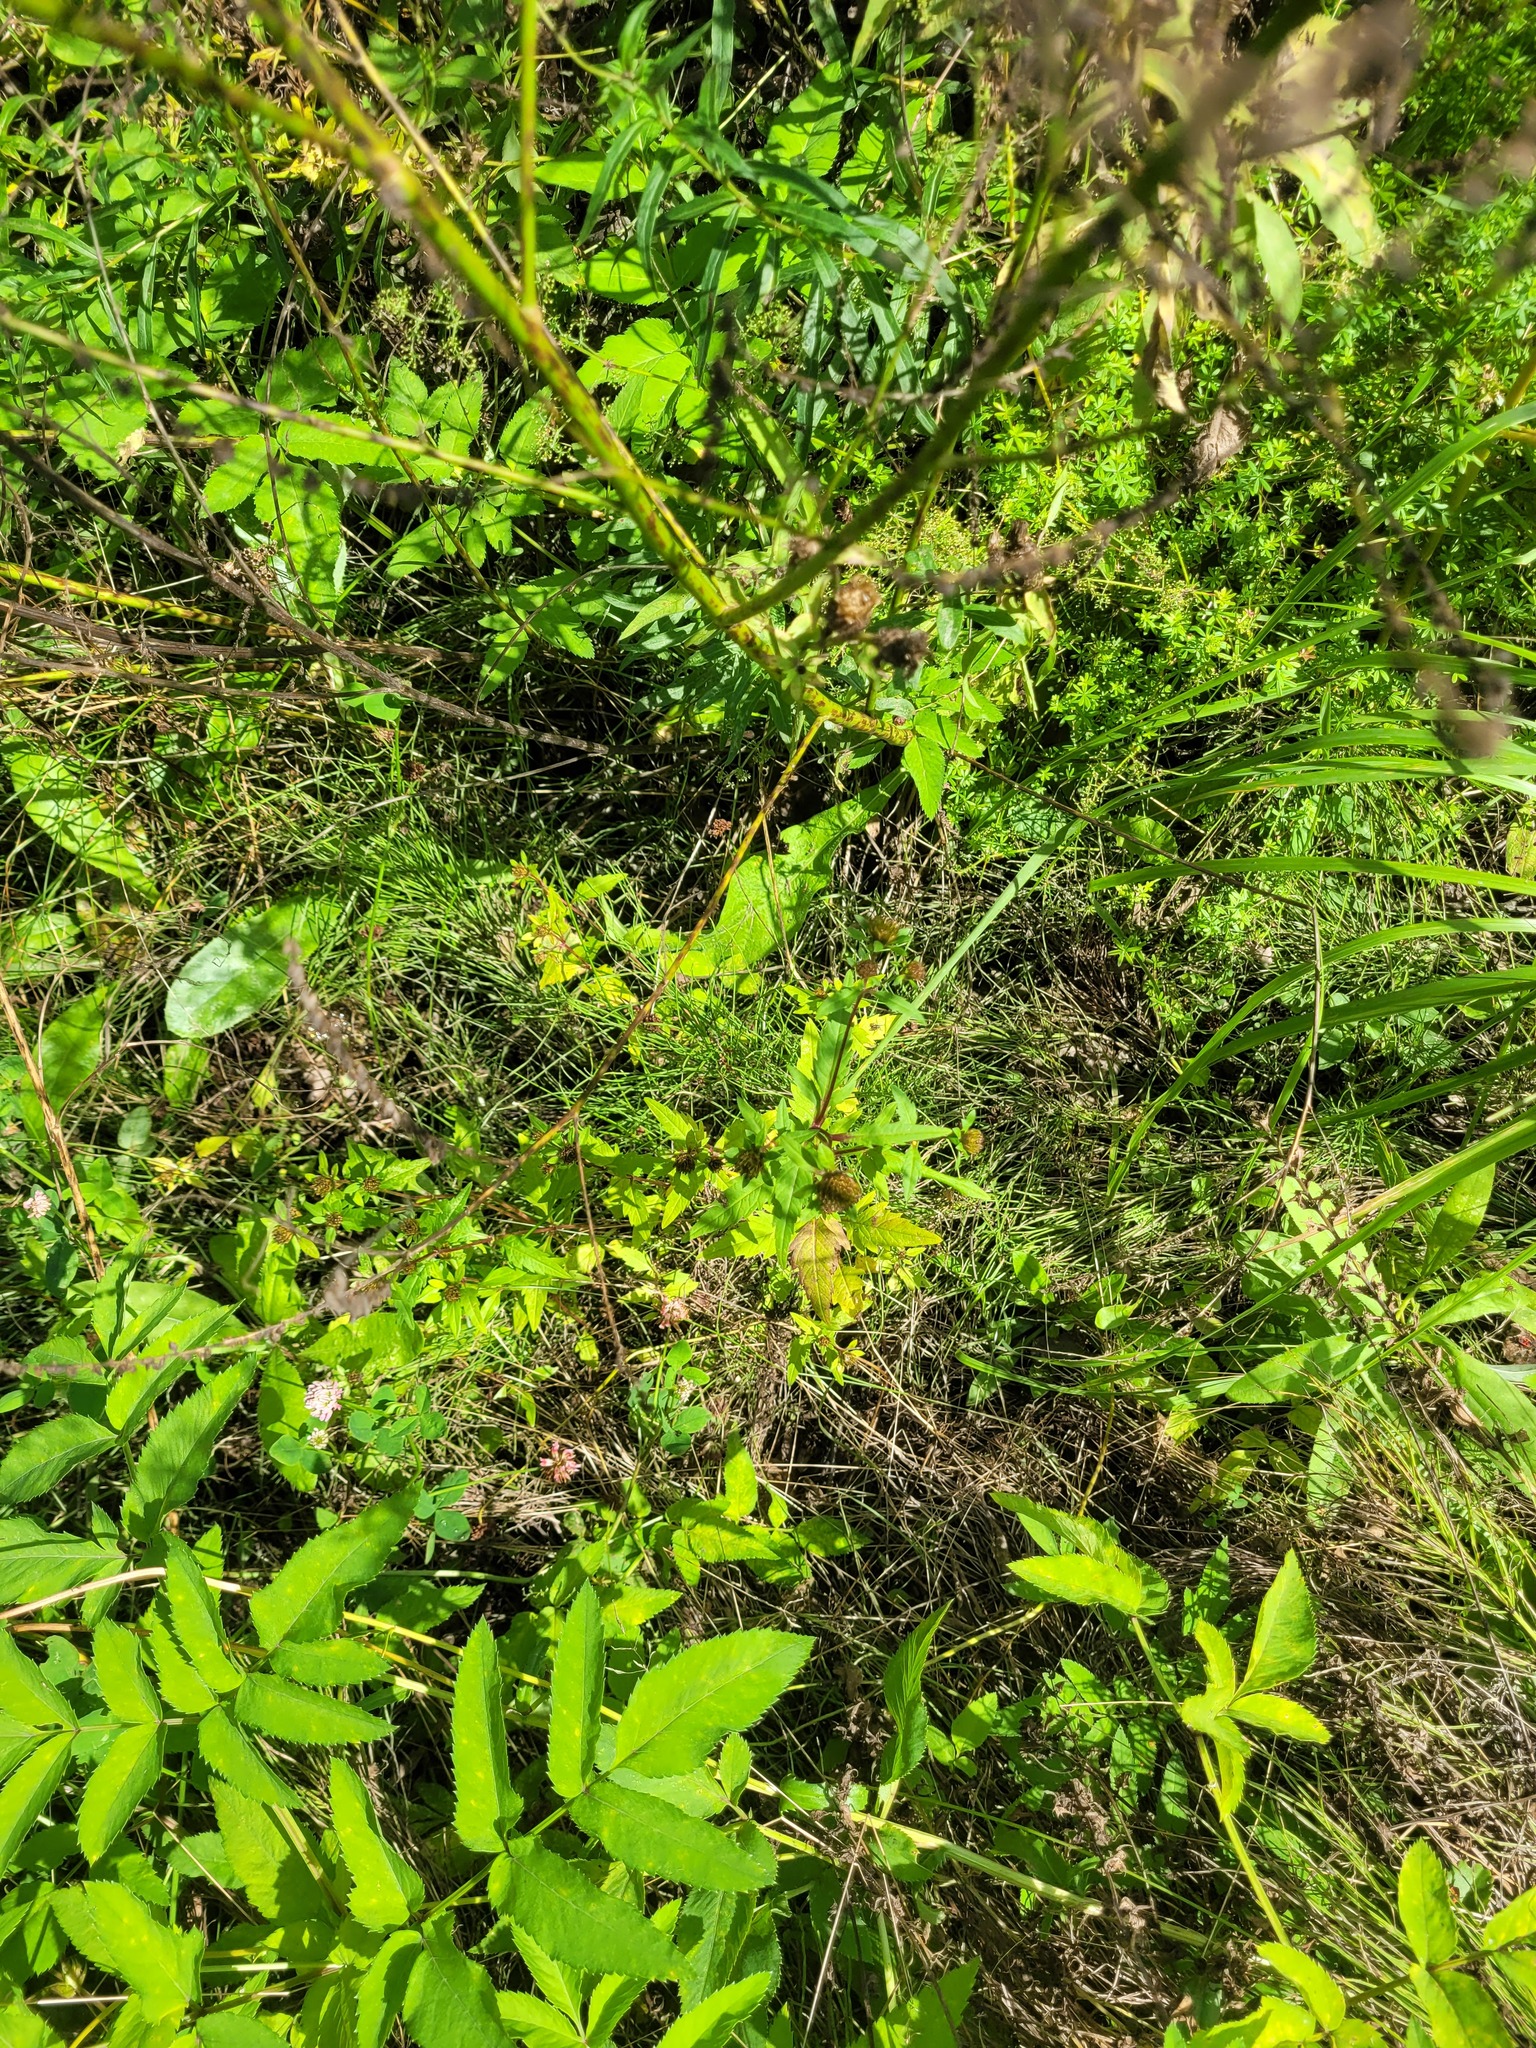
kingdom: Plantae
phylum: Tracheophyta
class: Magnoliopsida
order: Asterales
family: Asteraceae
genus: Bidens
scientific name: Bidens tripartita
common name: Trifid bur-marigold
